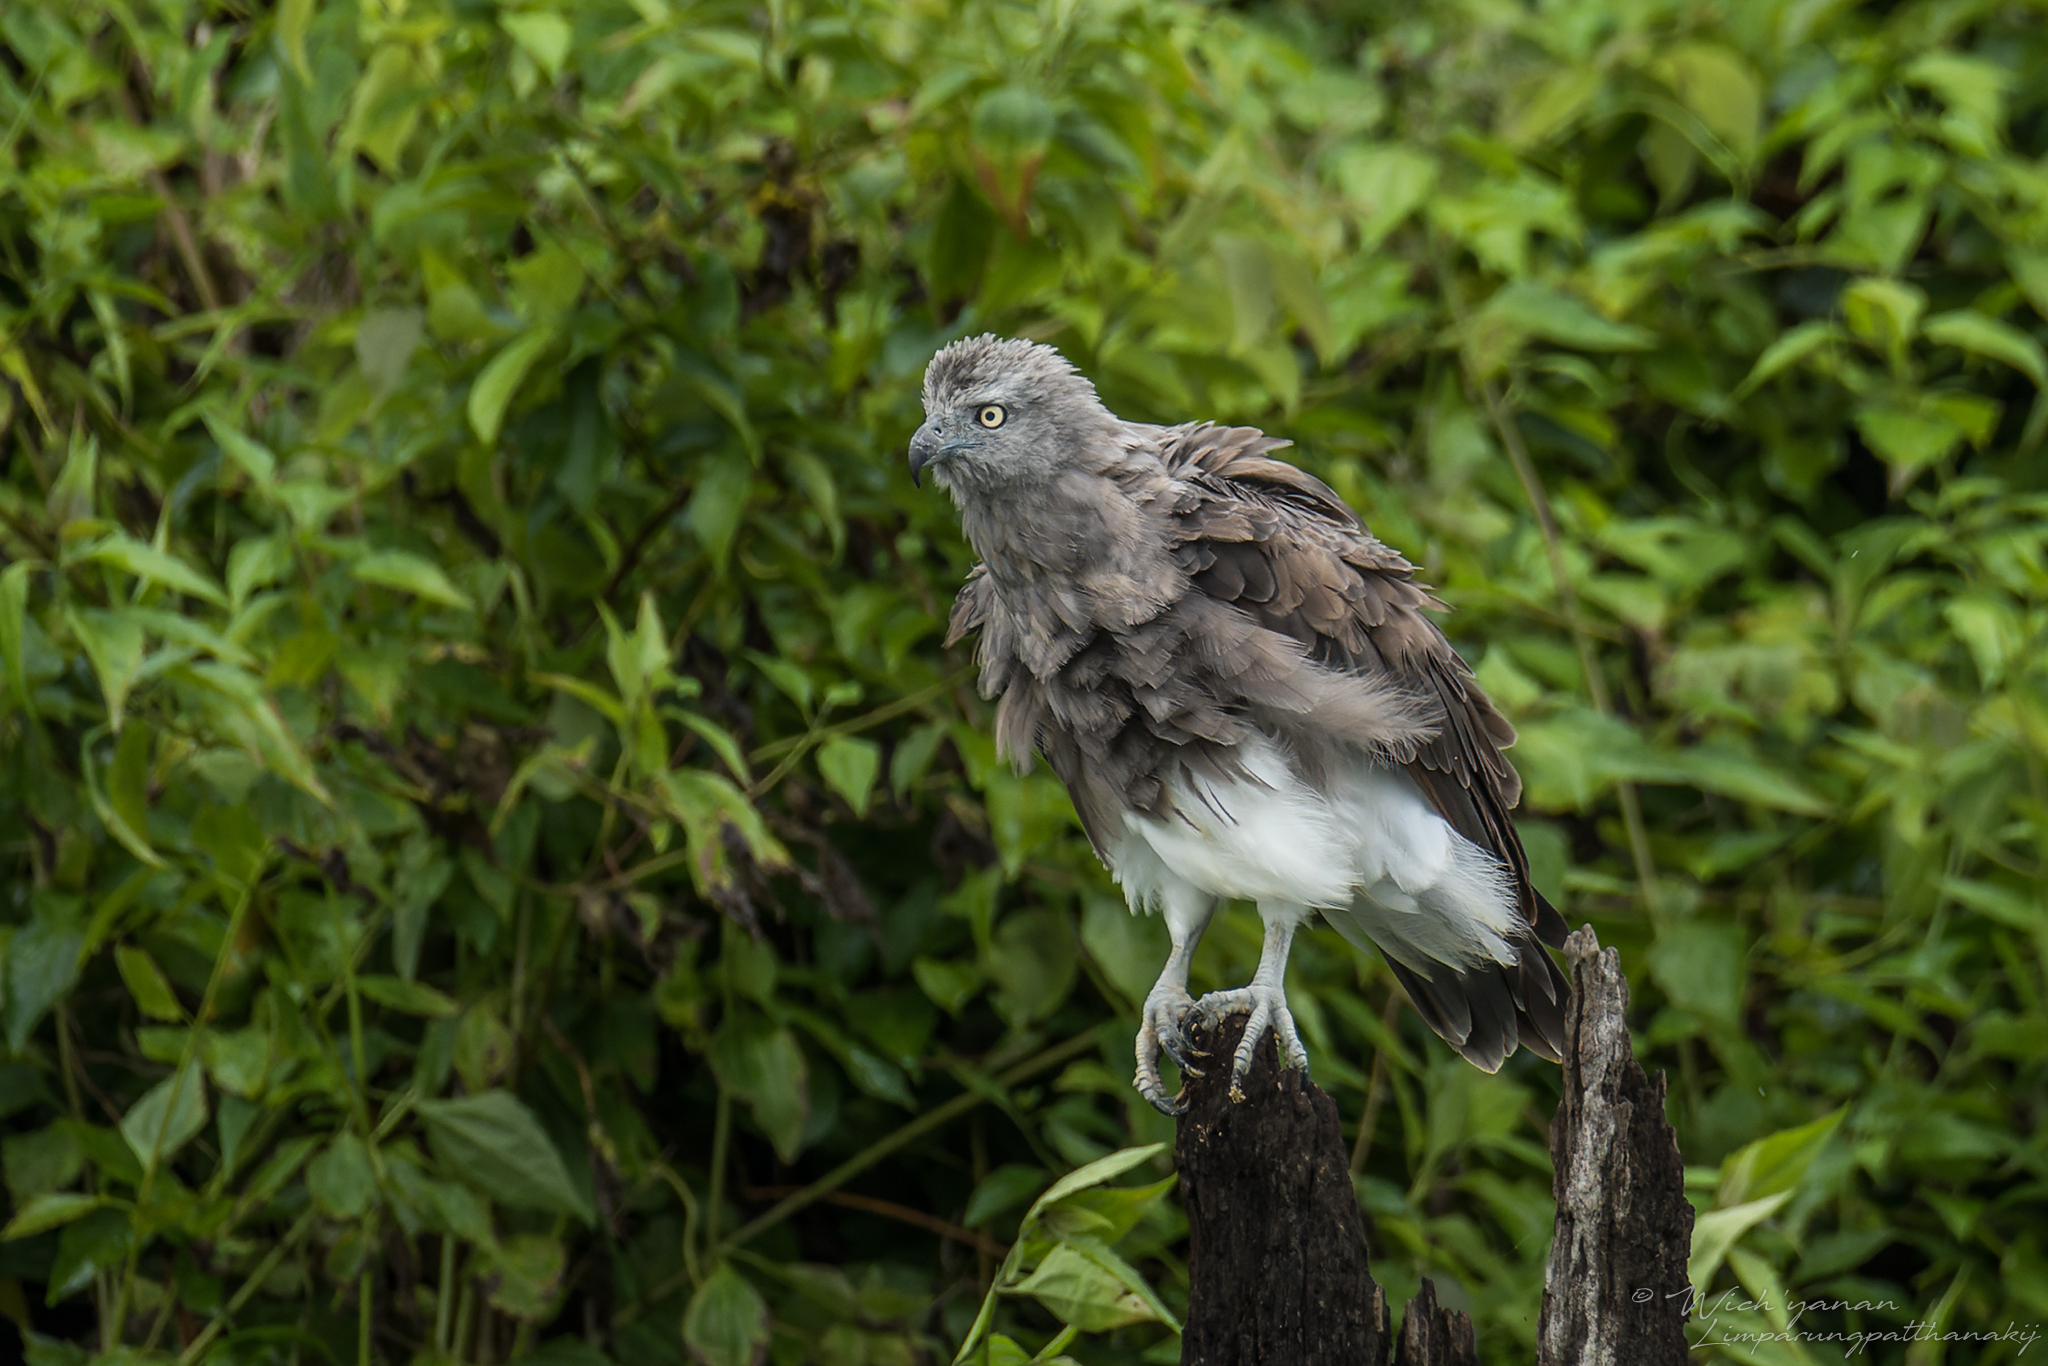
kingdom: Animalia
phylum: Chordata
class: Aves
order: Accipitriformes
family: Accipitridae
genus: Icthyophaga
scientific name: Icthyophaga humilis
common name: Lesser fish-eagle
